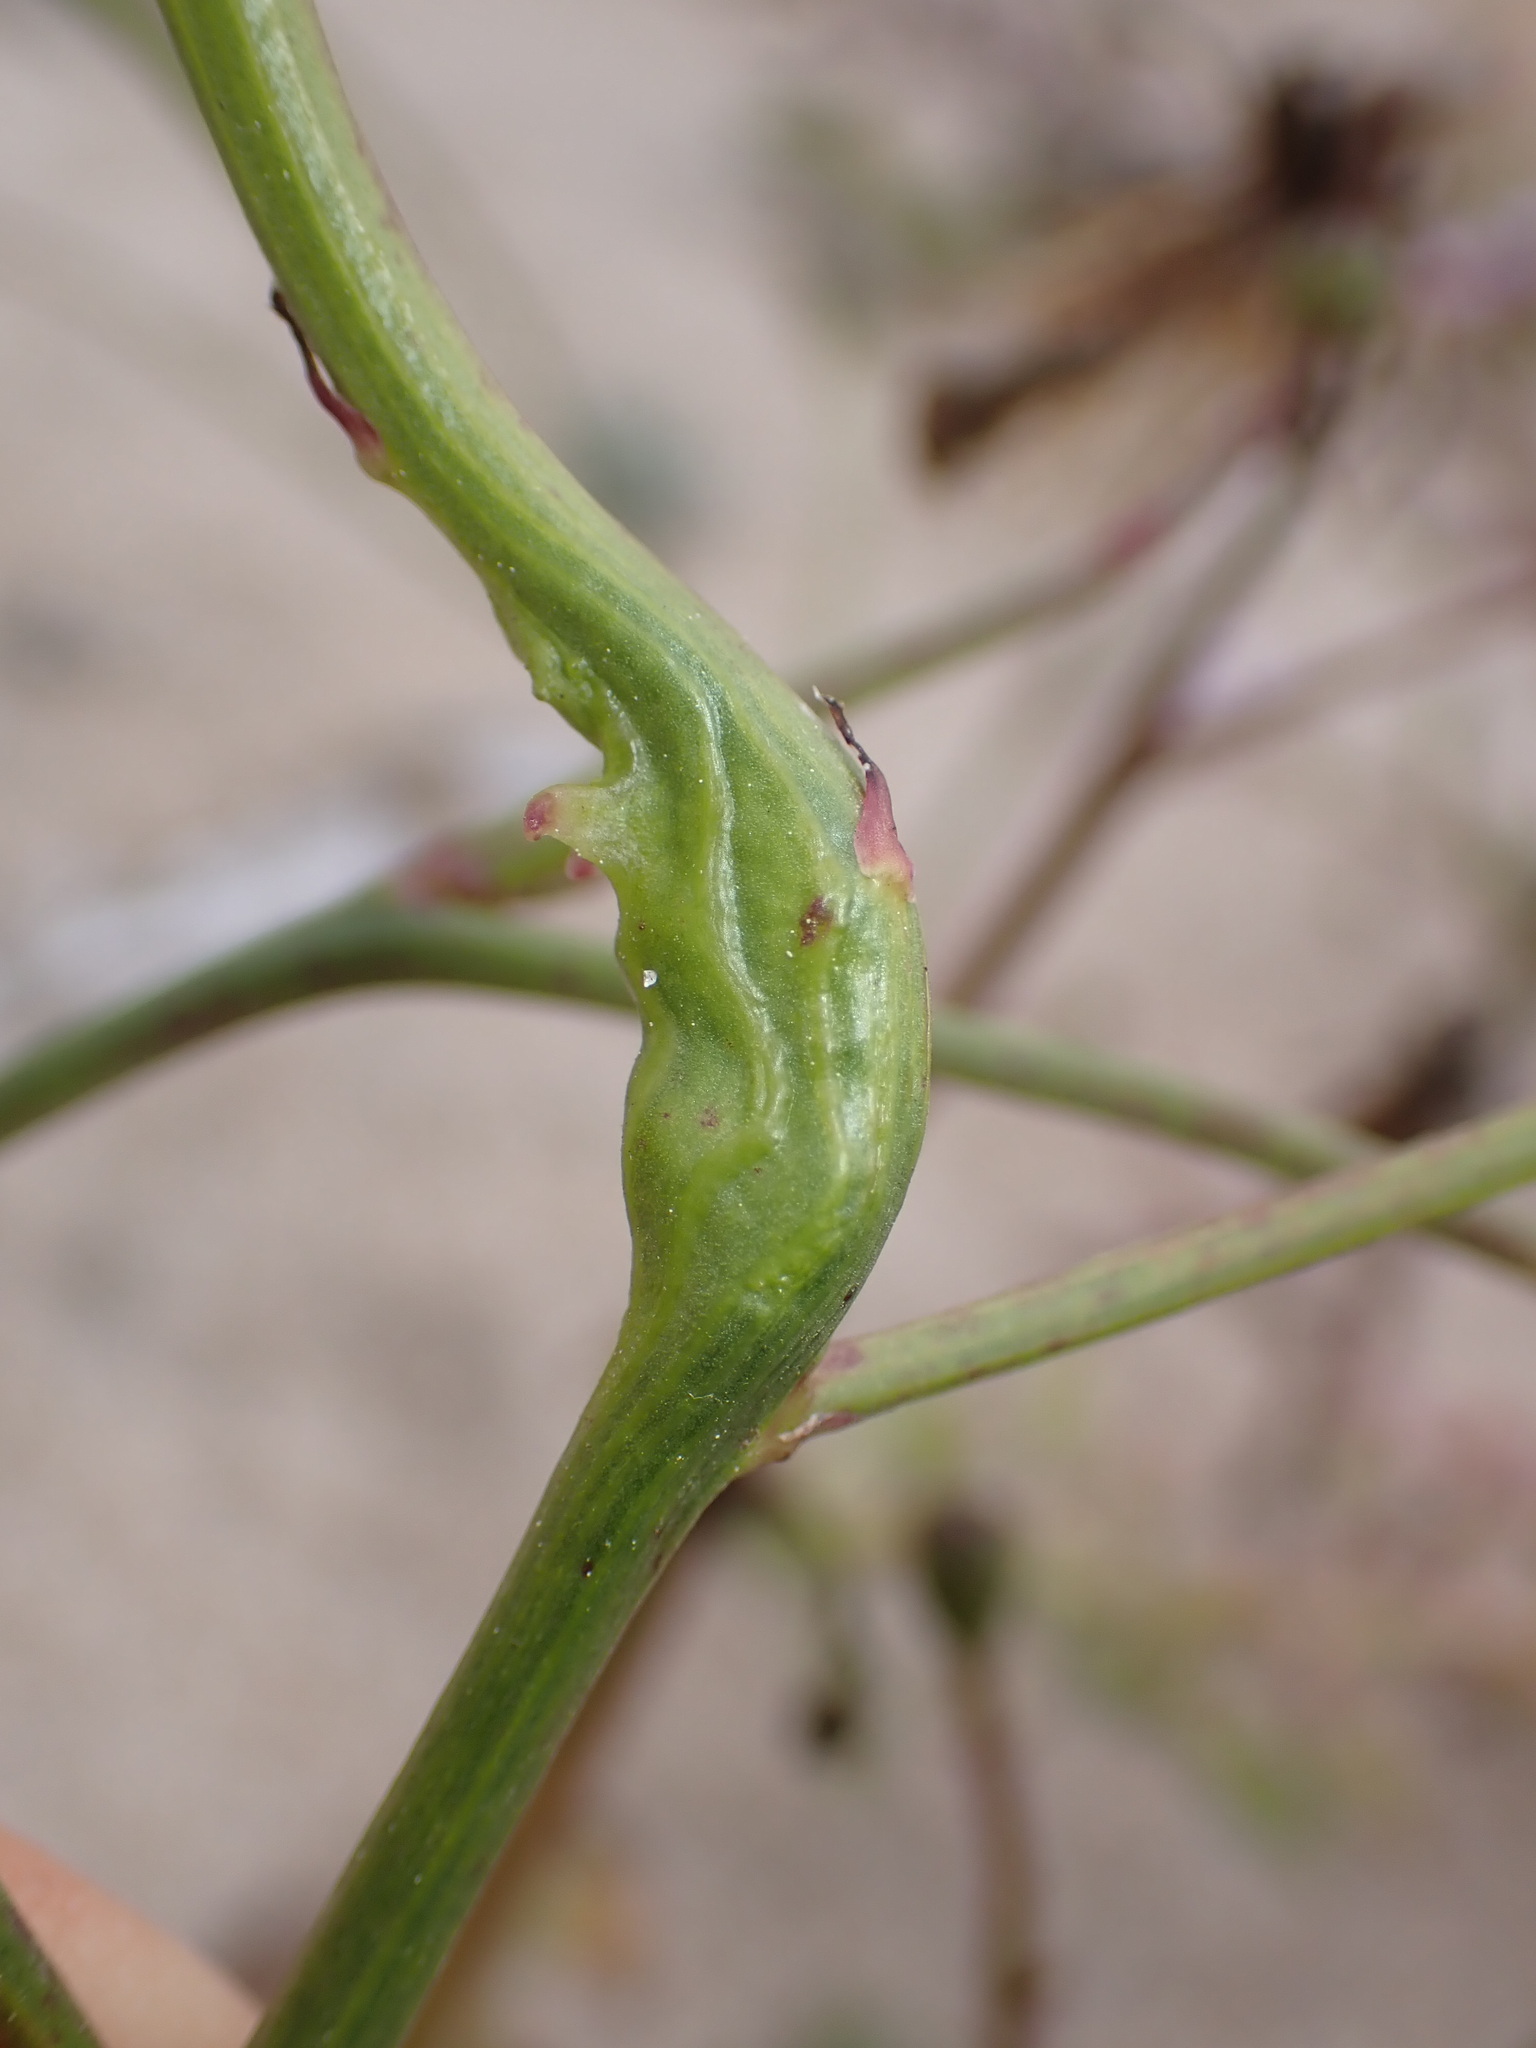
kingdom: Animalia
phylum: Arthropoda
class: Insecta
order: Hymenoptera
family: Cynipidae
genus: Phanacis
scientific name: Phanacis hypochoeridis
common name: Gall wasp
